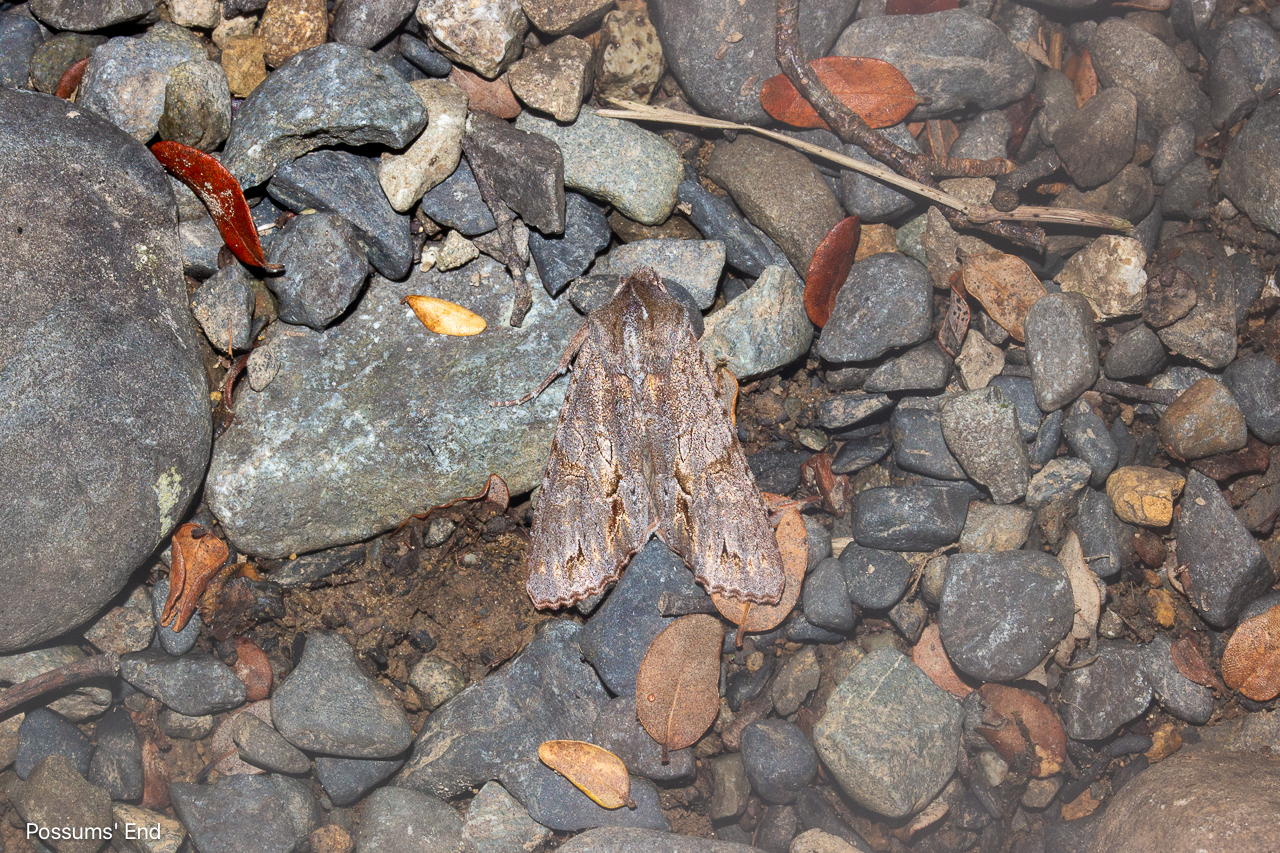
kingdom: Animalia
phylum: Arthropoda
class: Insecta
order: Lepidoptera
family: Noctuidae
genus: Ichneutica
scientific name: Ichneutica
